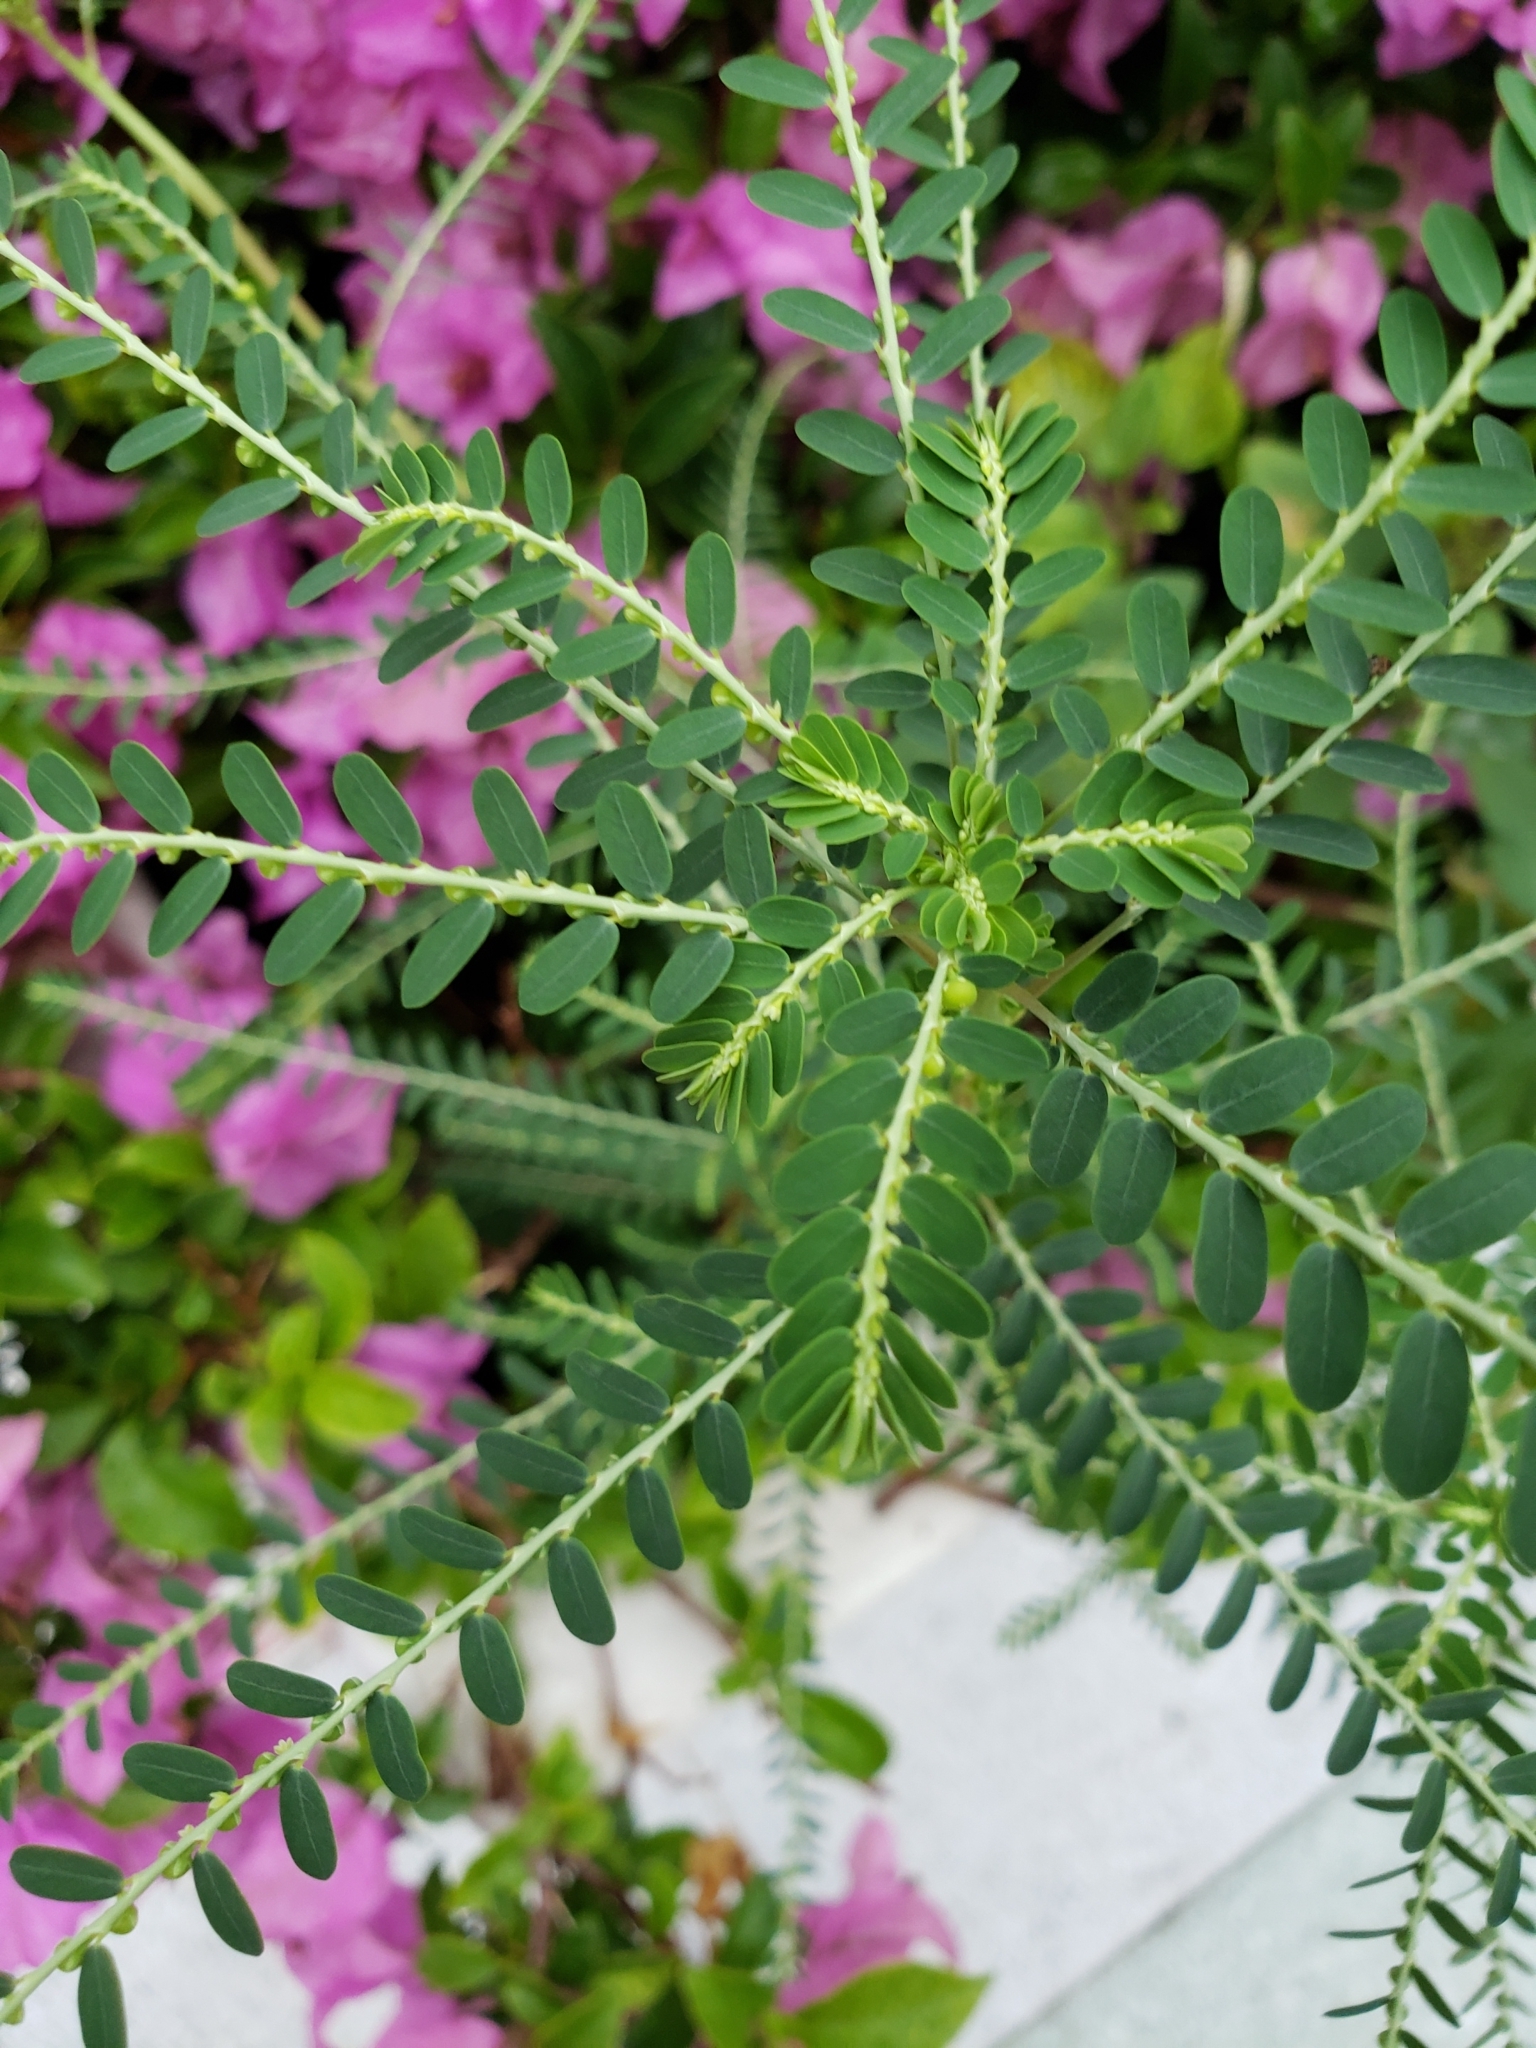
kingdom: Plantae
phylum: Tracheophyta
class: Magnoliopsida
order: Malpighiales
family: Phyllanthaceae
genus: Phyllanthus
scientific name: Phyllanthus amarus
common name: Carry me seed
